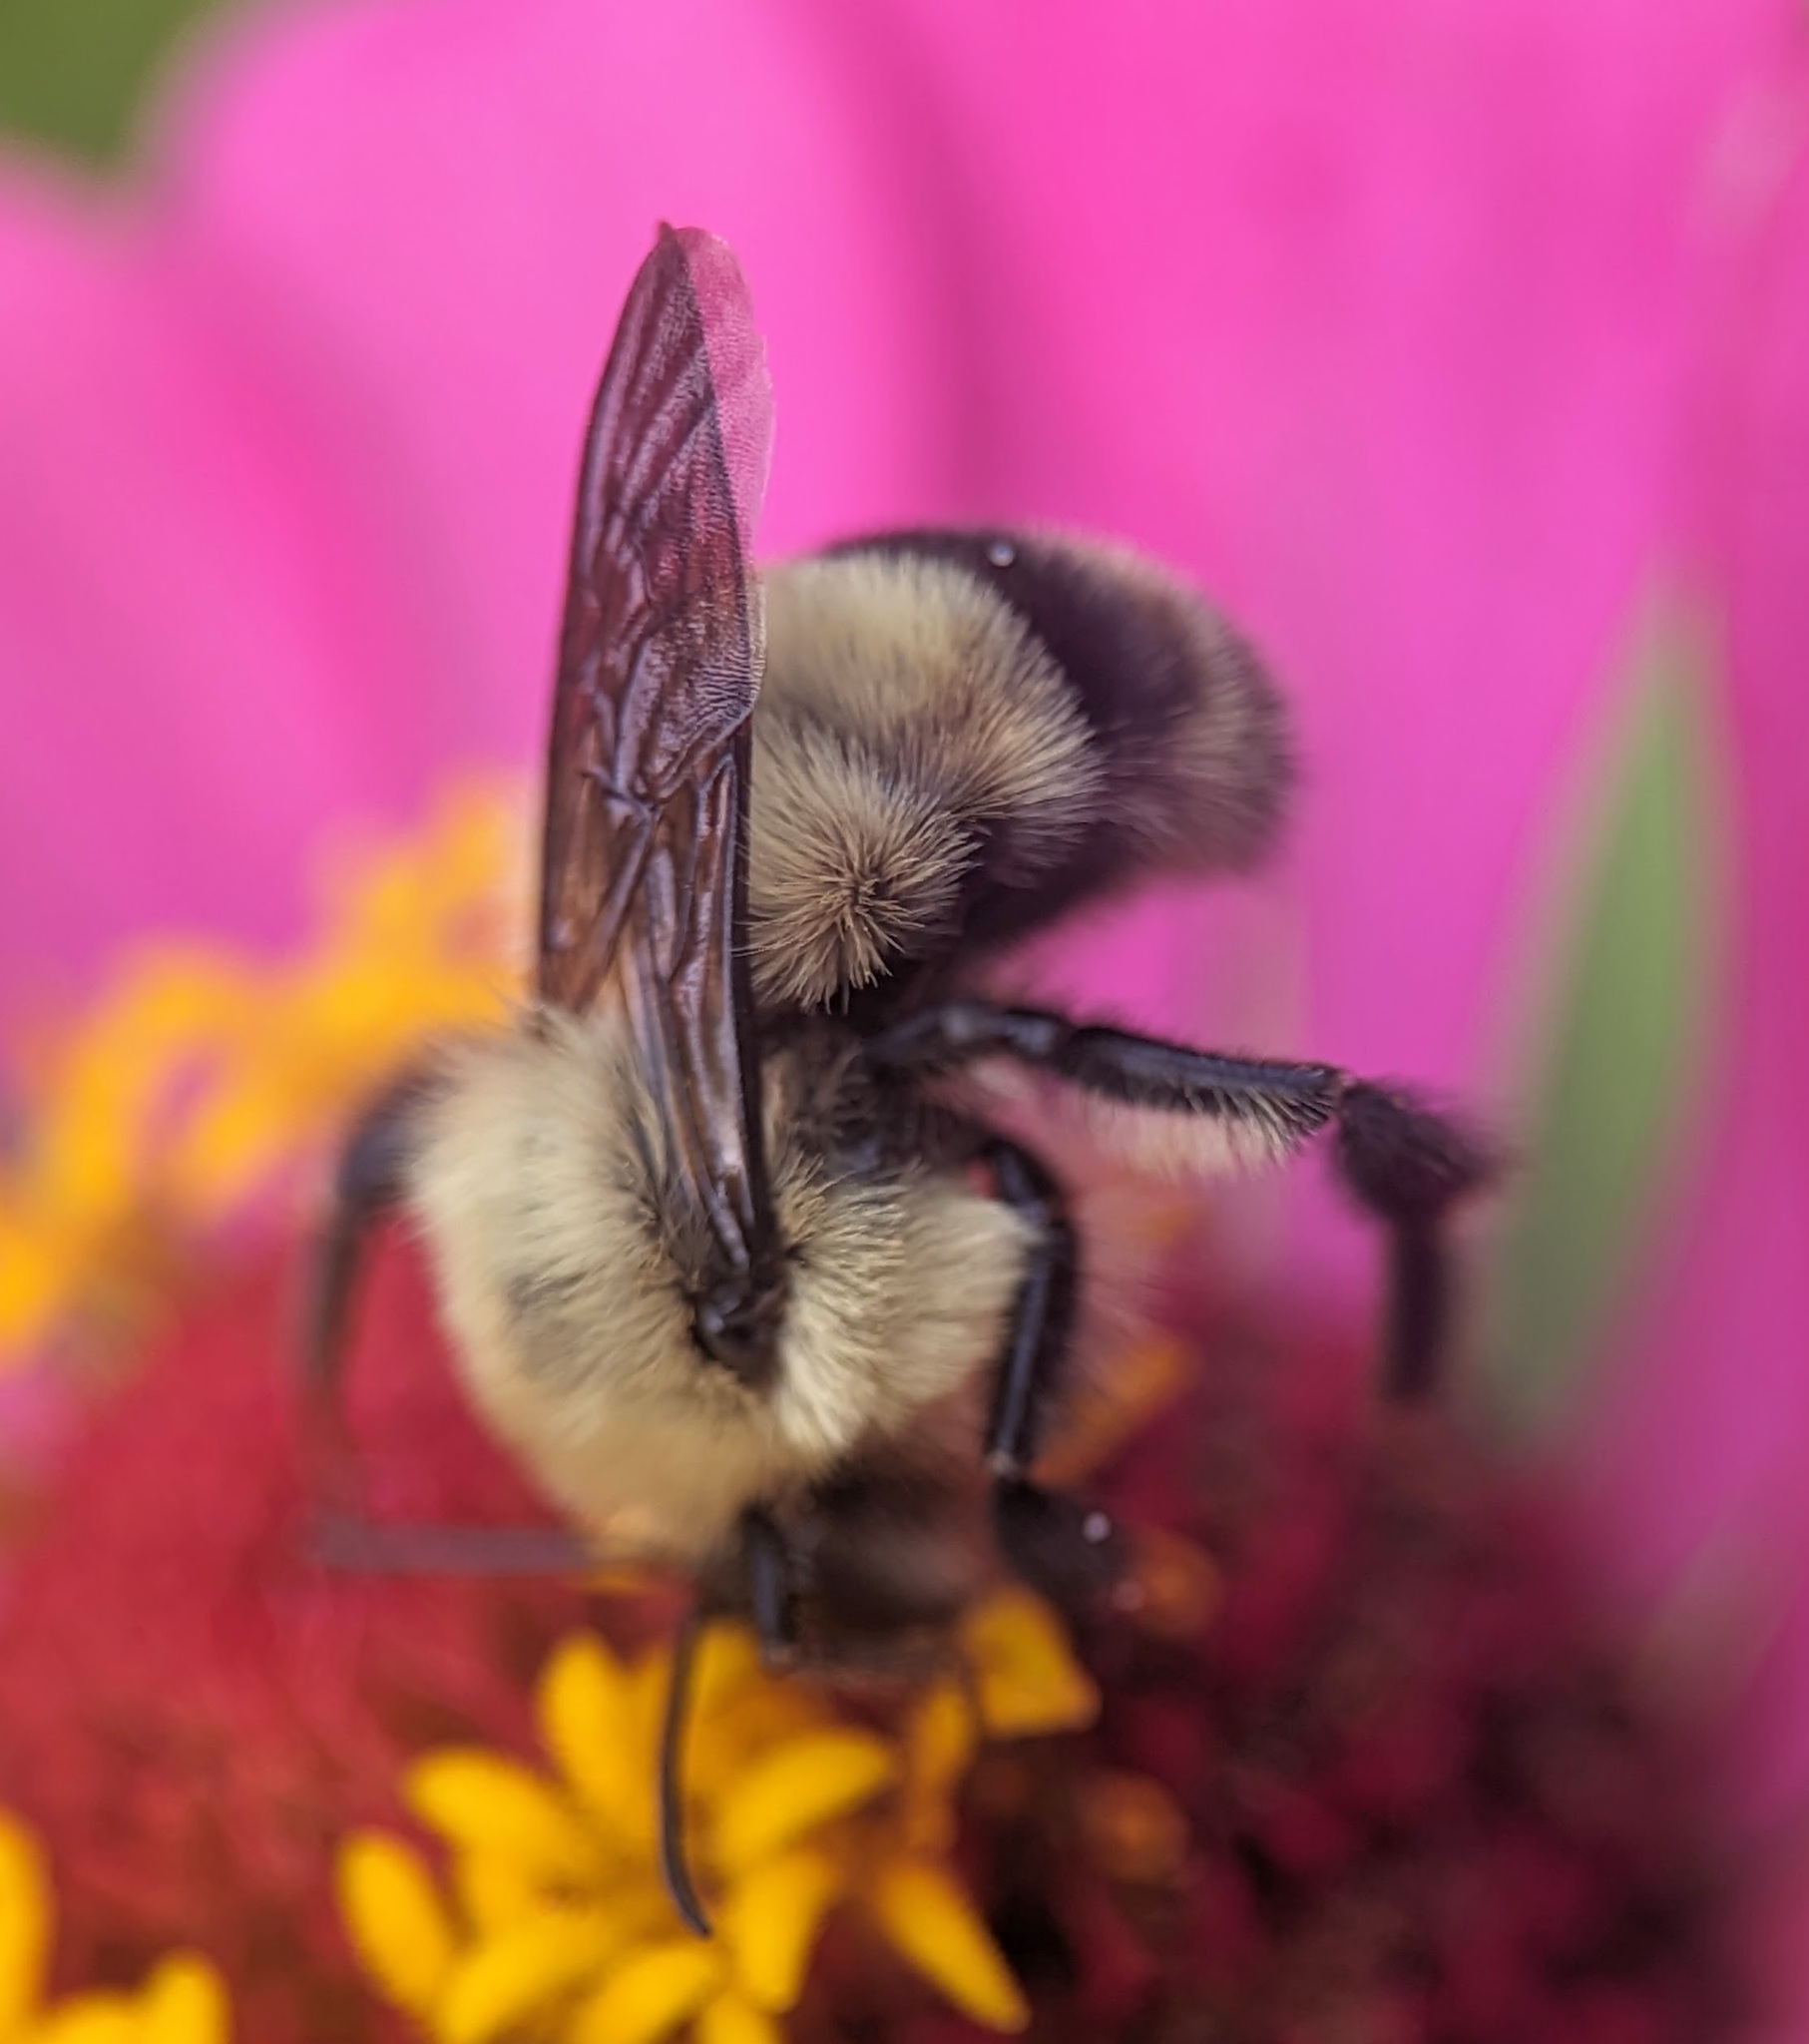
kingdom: Animalia
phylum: Arthropoda
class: Insecta
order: Hymenoptera
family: Apidae
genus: Bombus
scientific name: Bombus bimaculatus
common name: Two-spotted bumble bee
